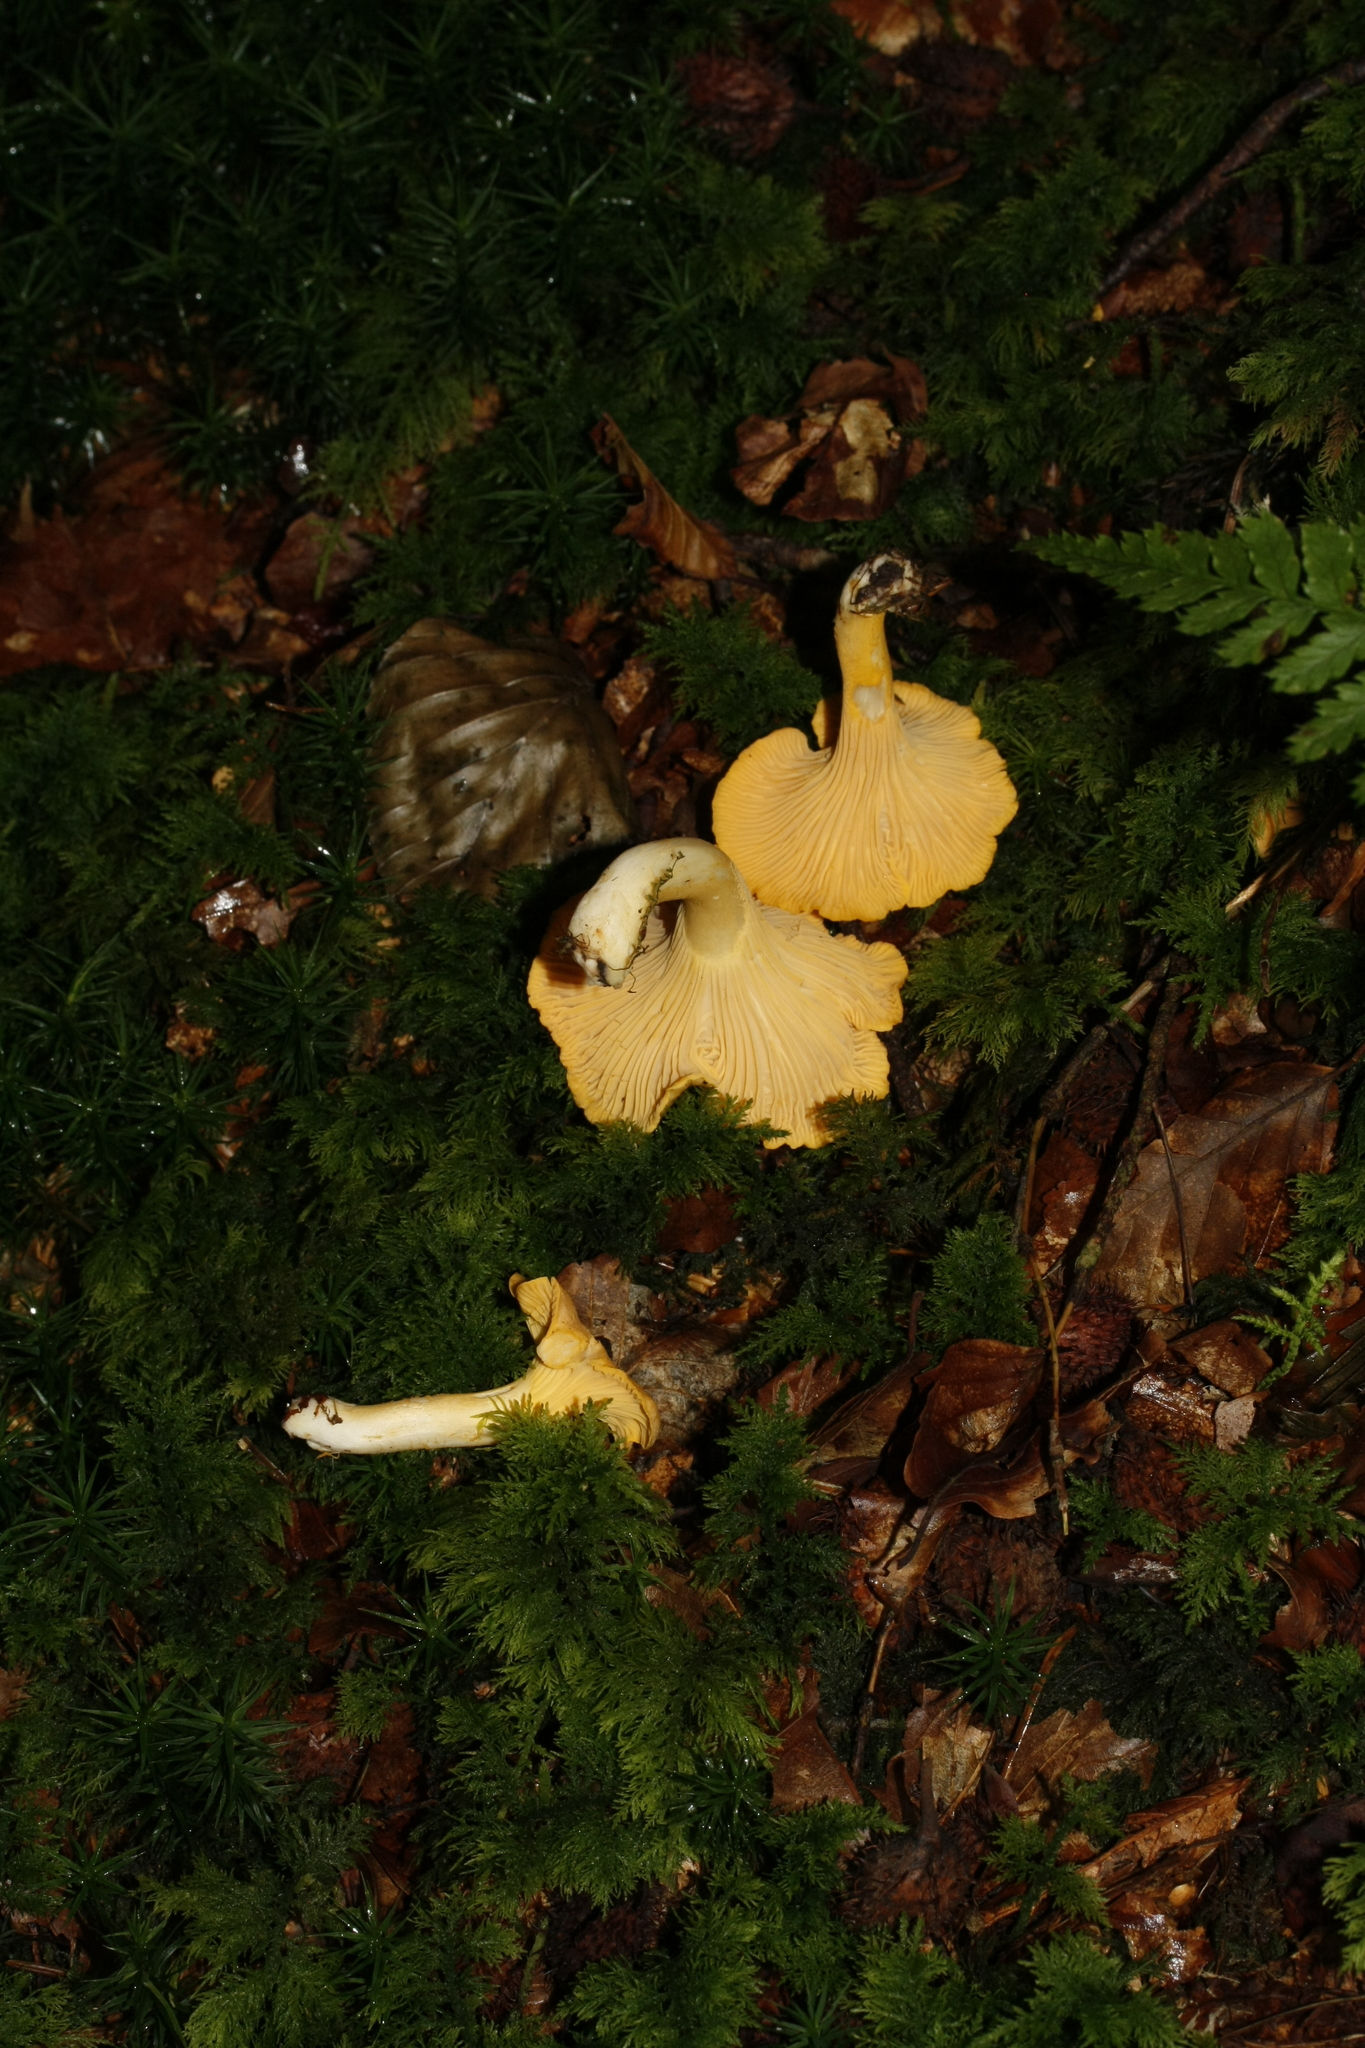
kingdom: Fungi
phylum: Basidiomycota
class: Agaricomycetes
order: Cantharellales
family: Hydnaceae
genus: Cantharellus
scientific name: Cantharellus cibarius
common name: Chanterelle
